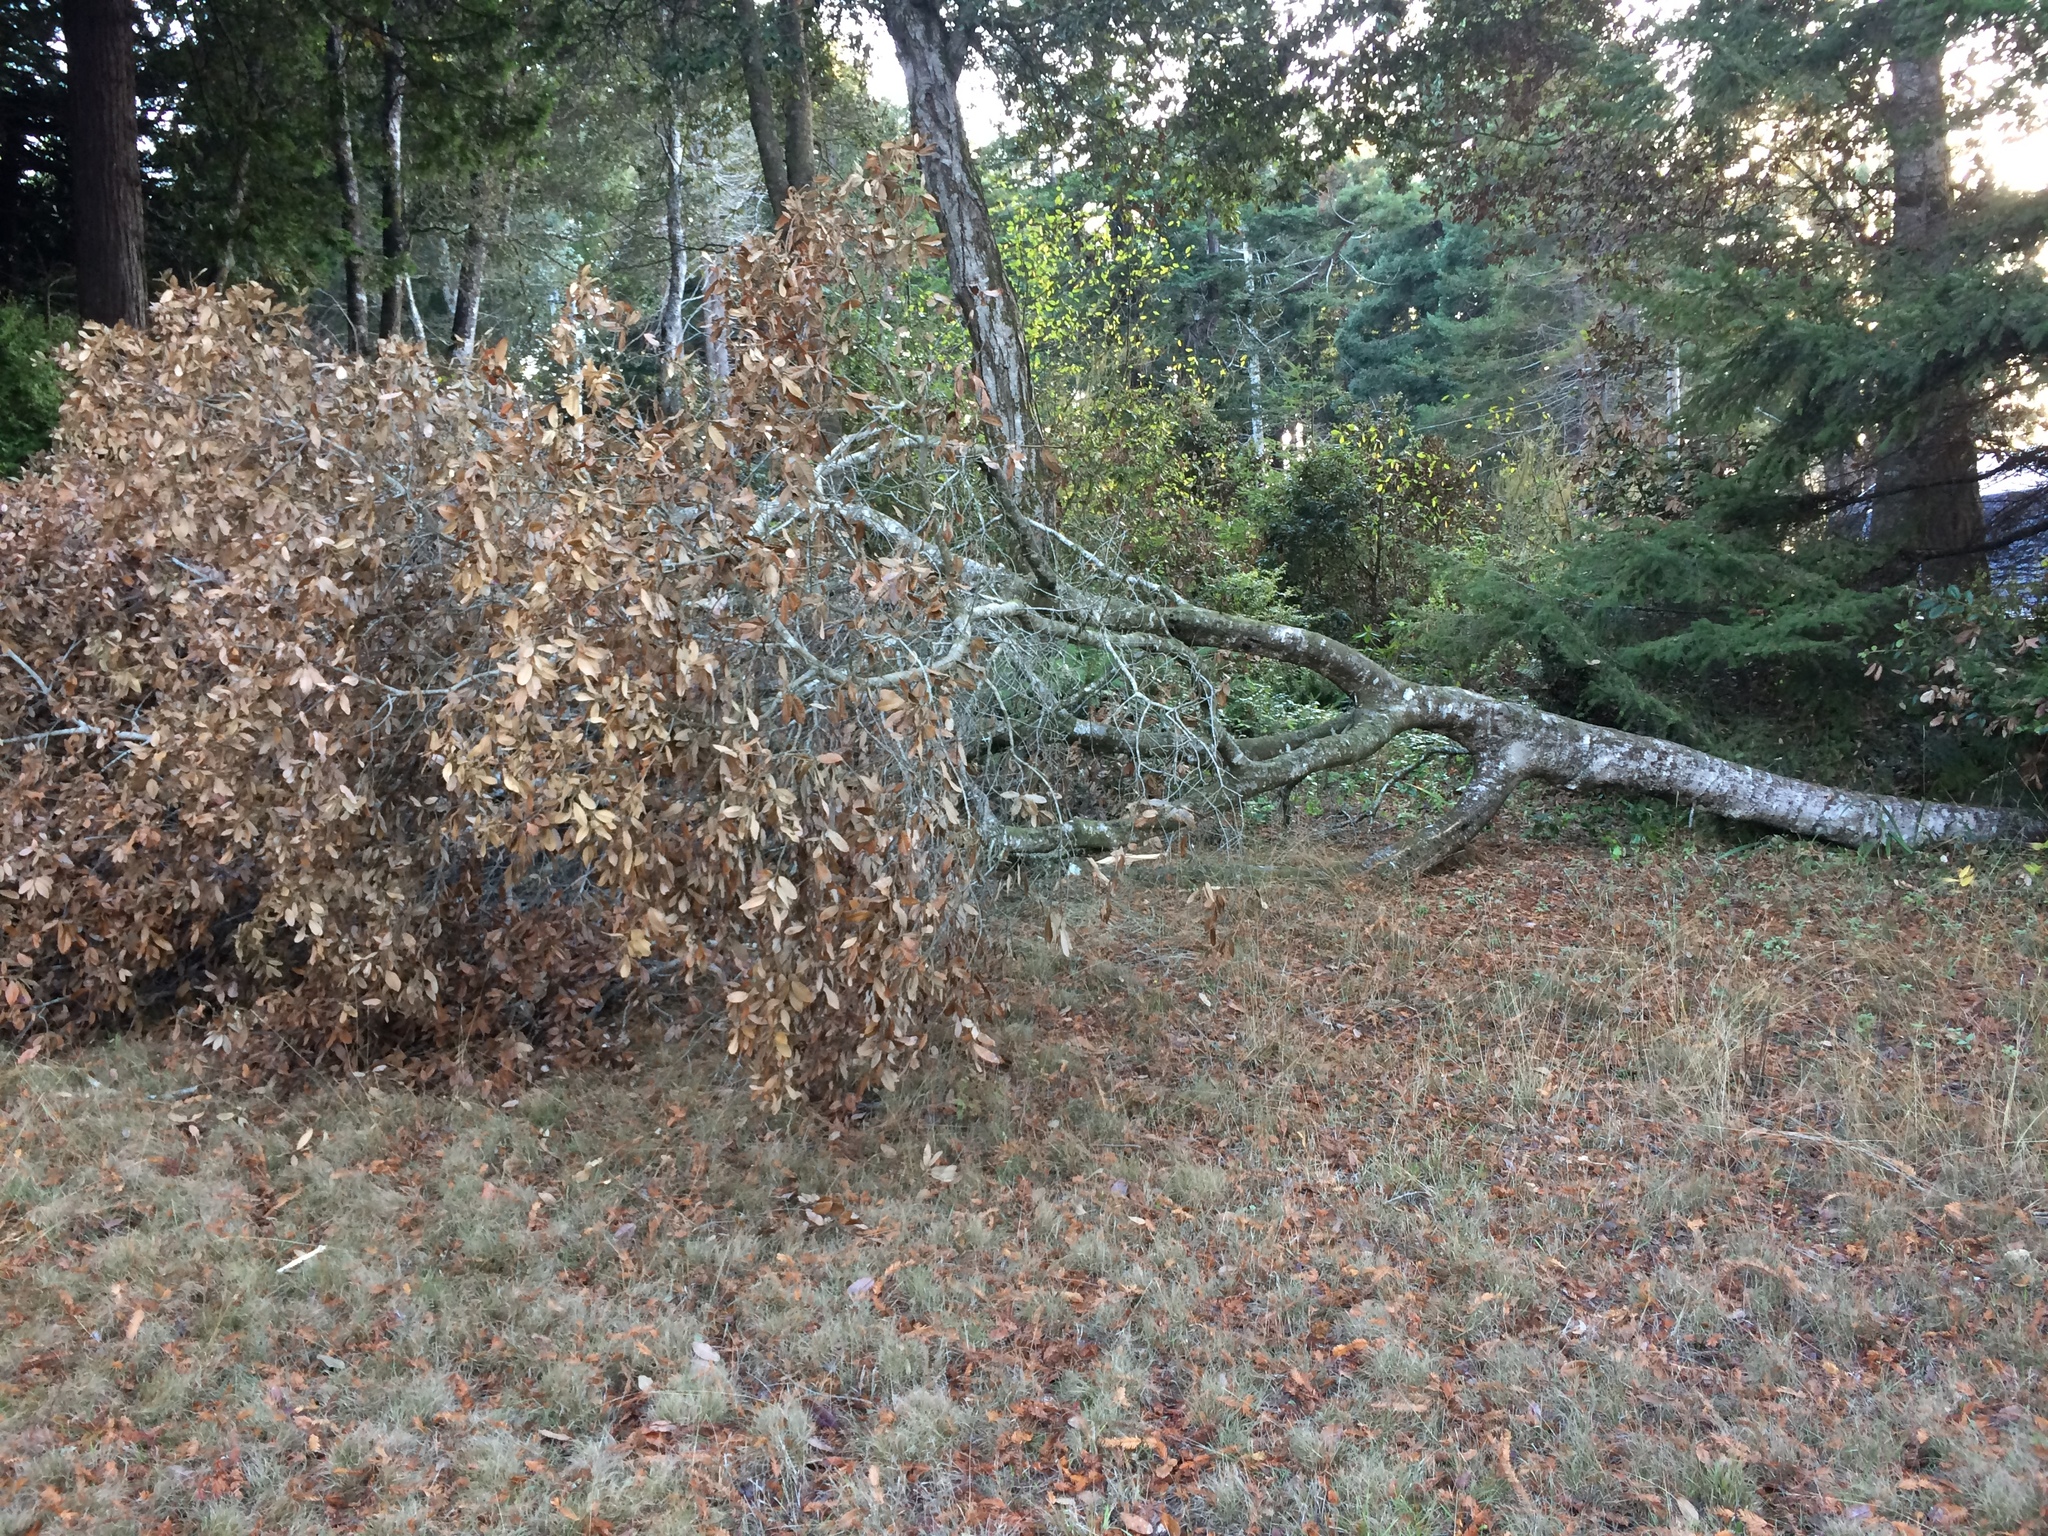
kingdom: Chromista
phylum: Oomycota
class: Peronosporea
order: Peronosporales
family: Peronosporaceae
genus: Phytophthora
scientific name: Phytophthora ramorum
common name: Sudden oak death
